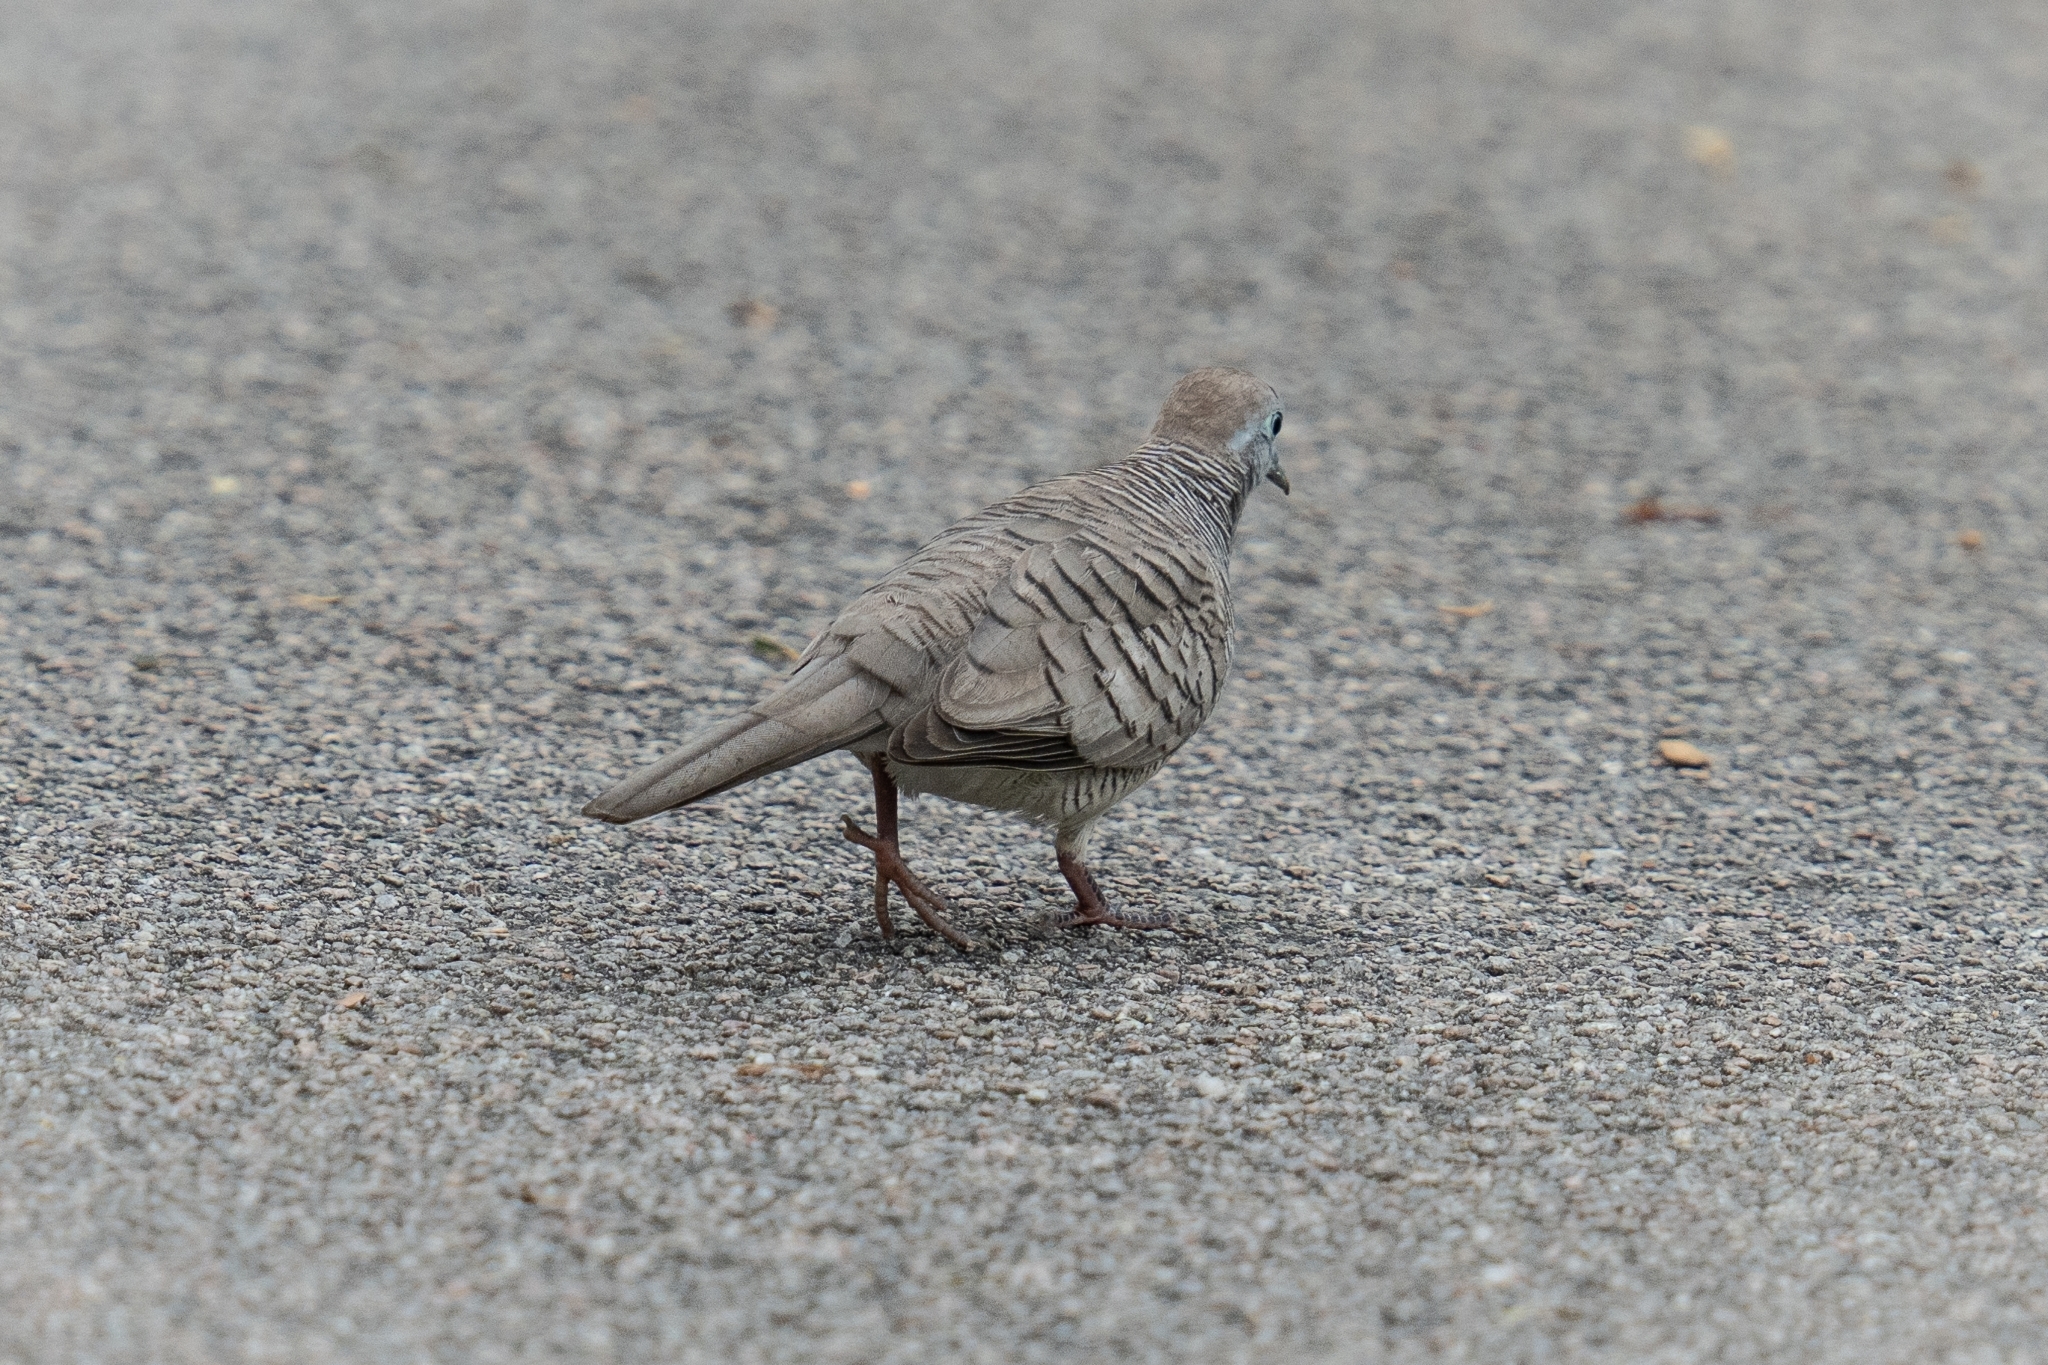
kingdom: Animalia
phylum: Chordata
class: Aves
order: Columbiformes
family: Columbidae
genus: Geopelia
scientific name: Geopelia striata
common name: Zebra dove
